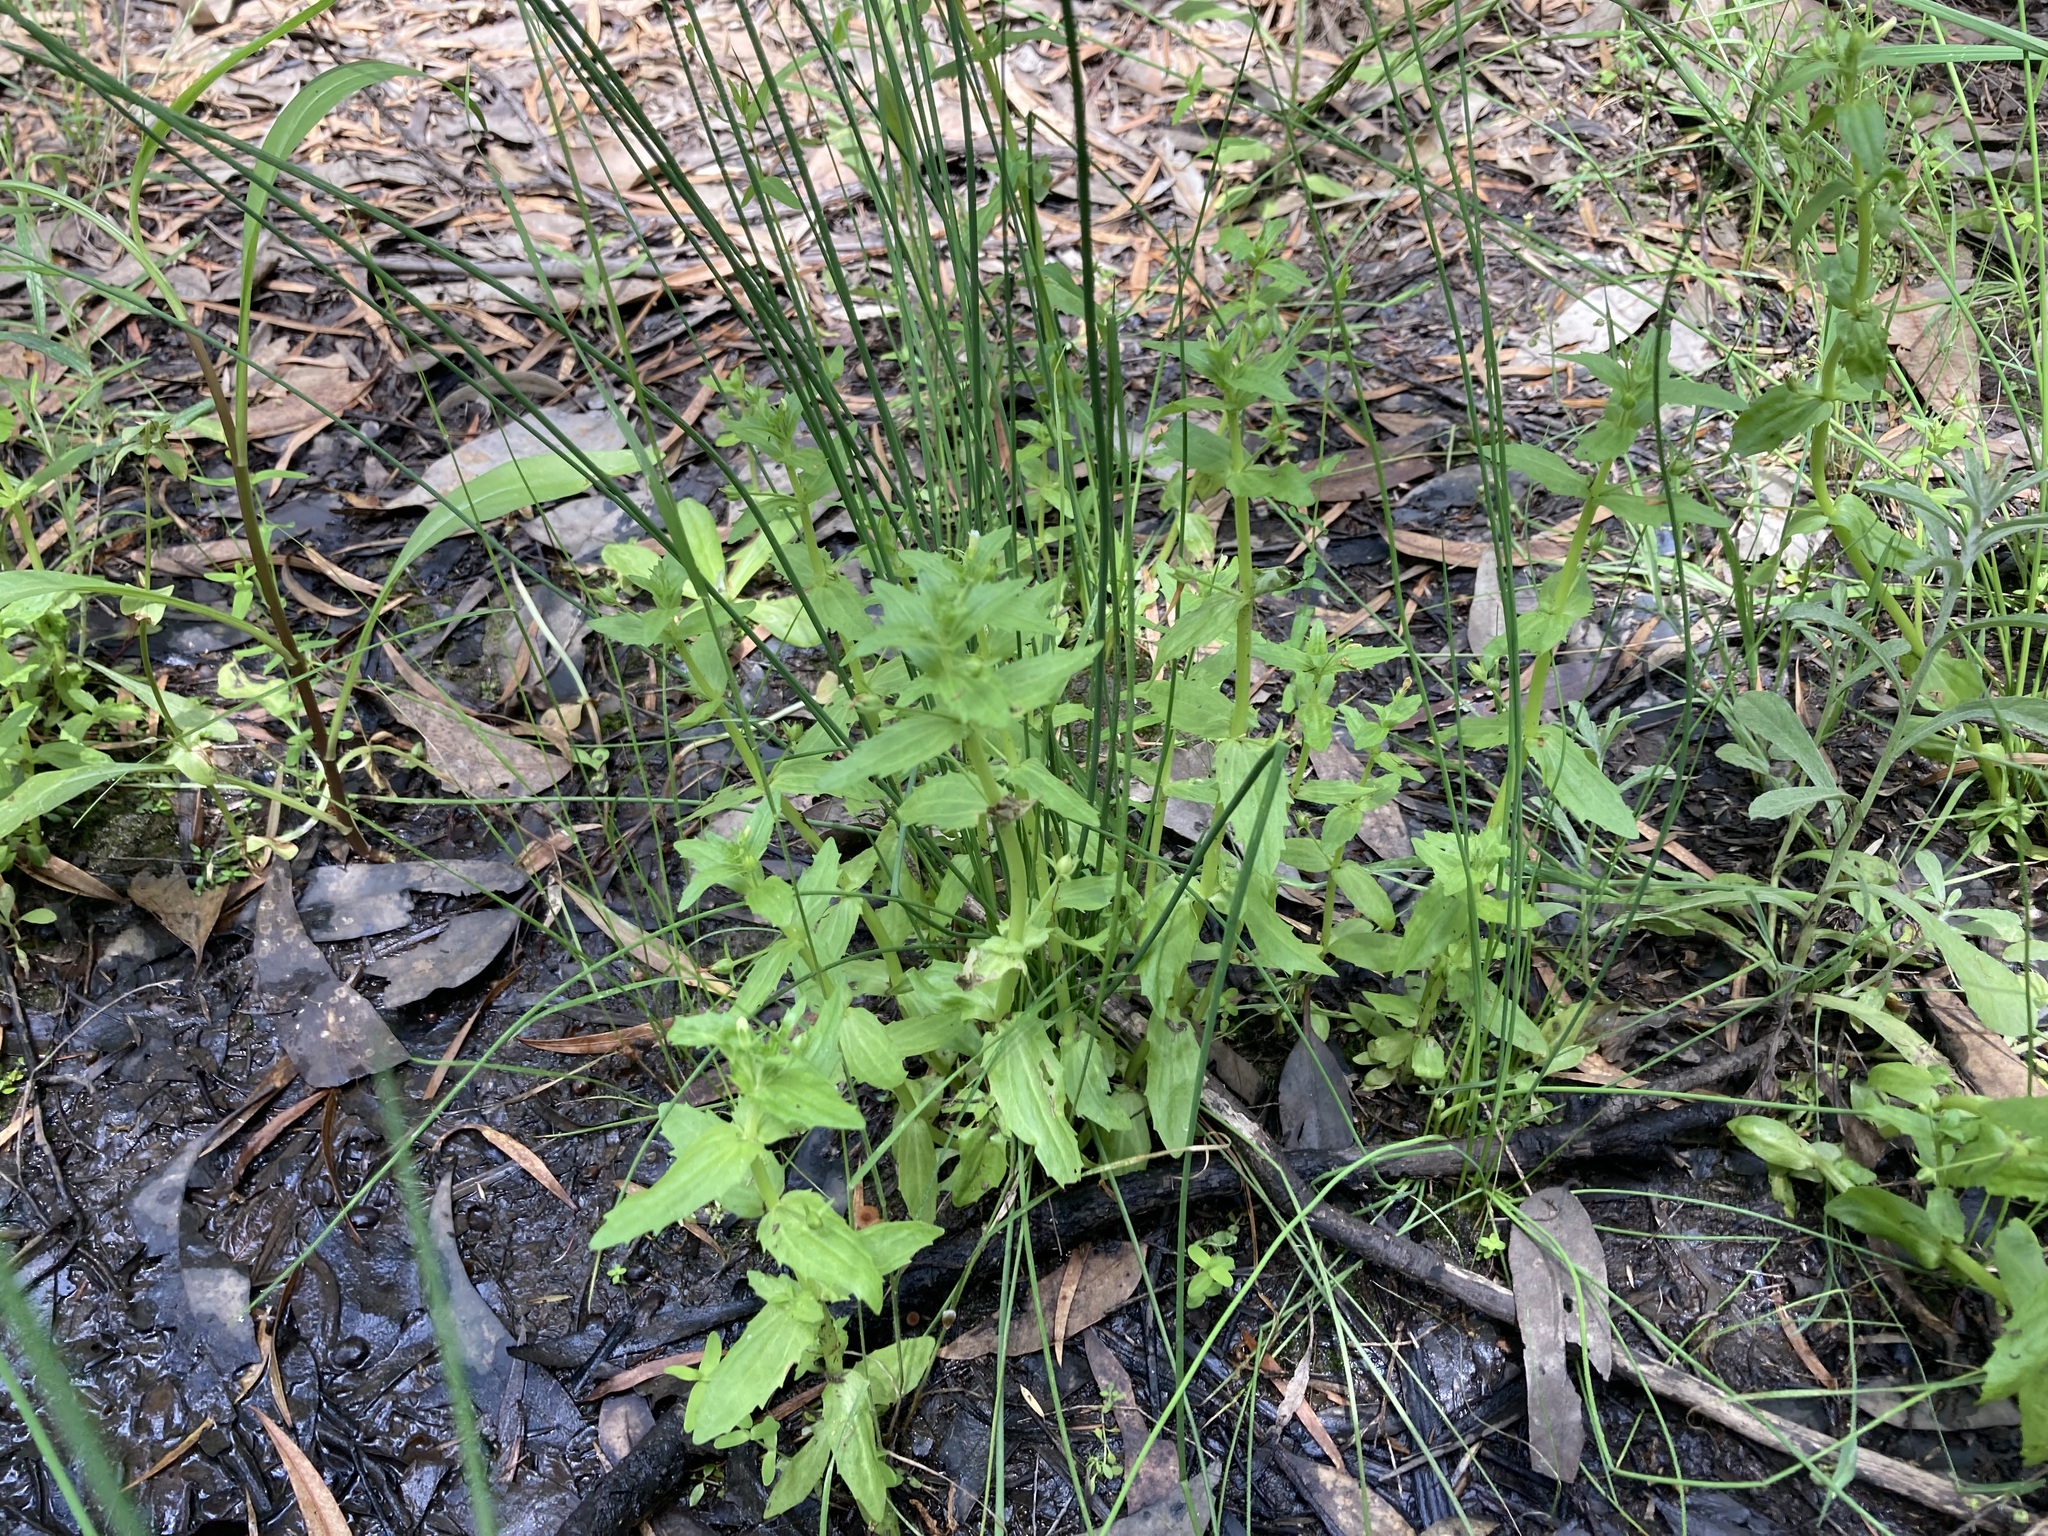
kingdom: Plantae
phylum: Tracheophyta
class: Magnoliopsida
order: Lamiales
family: Plantaginaceae
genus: Gratiola
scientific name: Gratiola pedunculata
